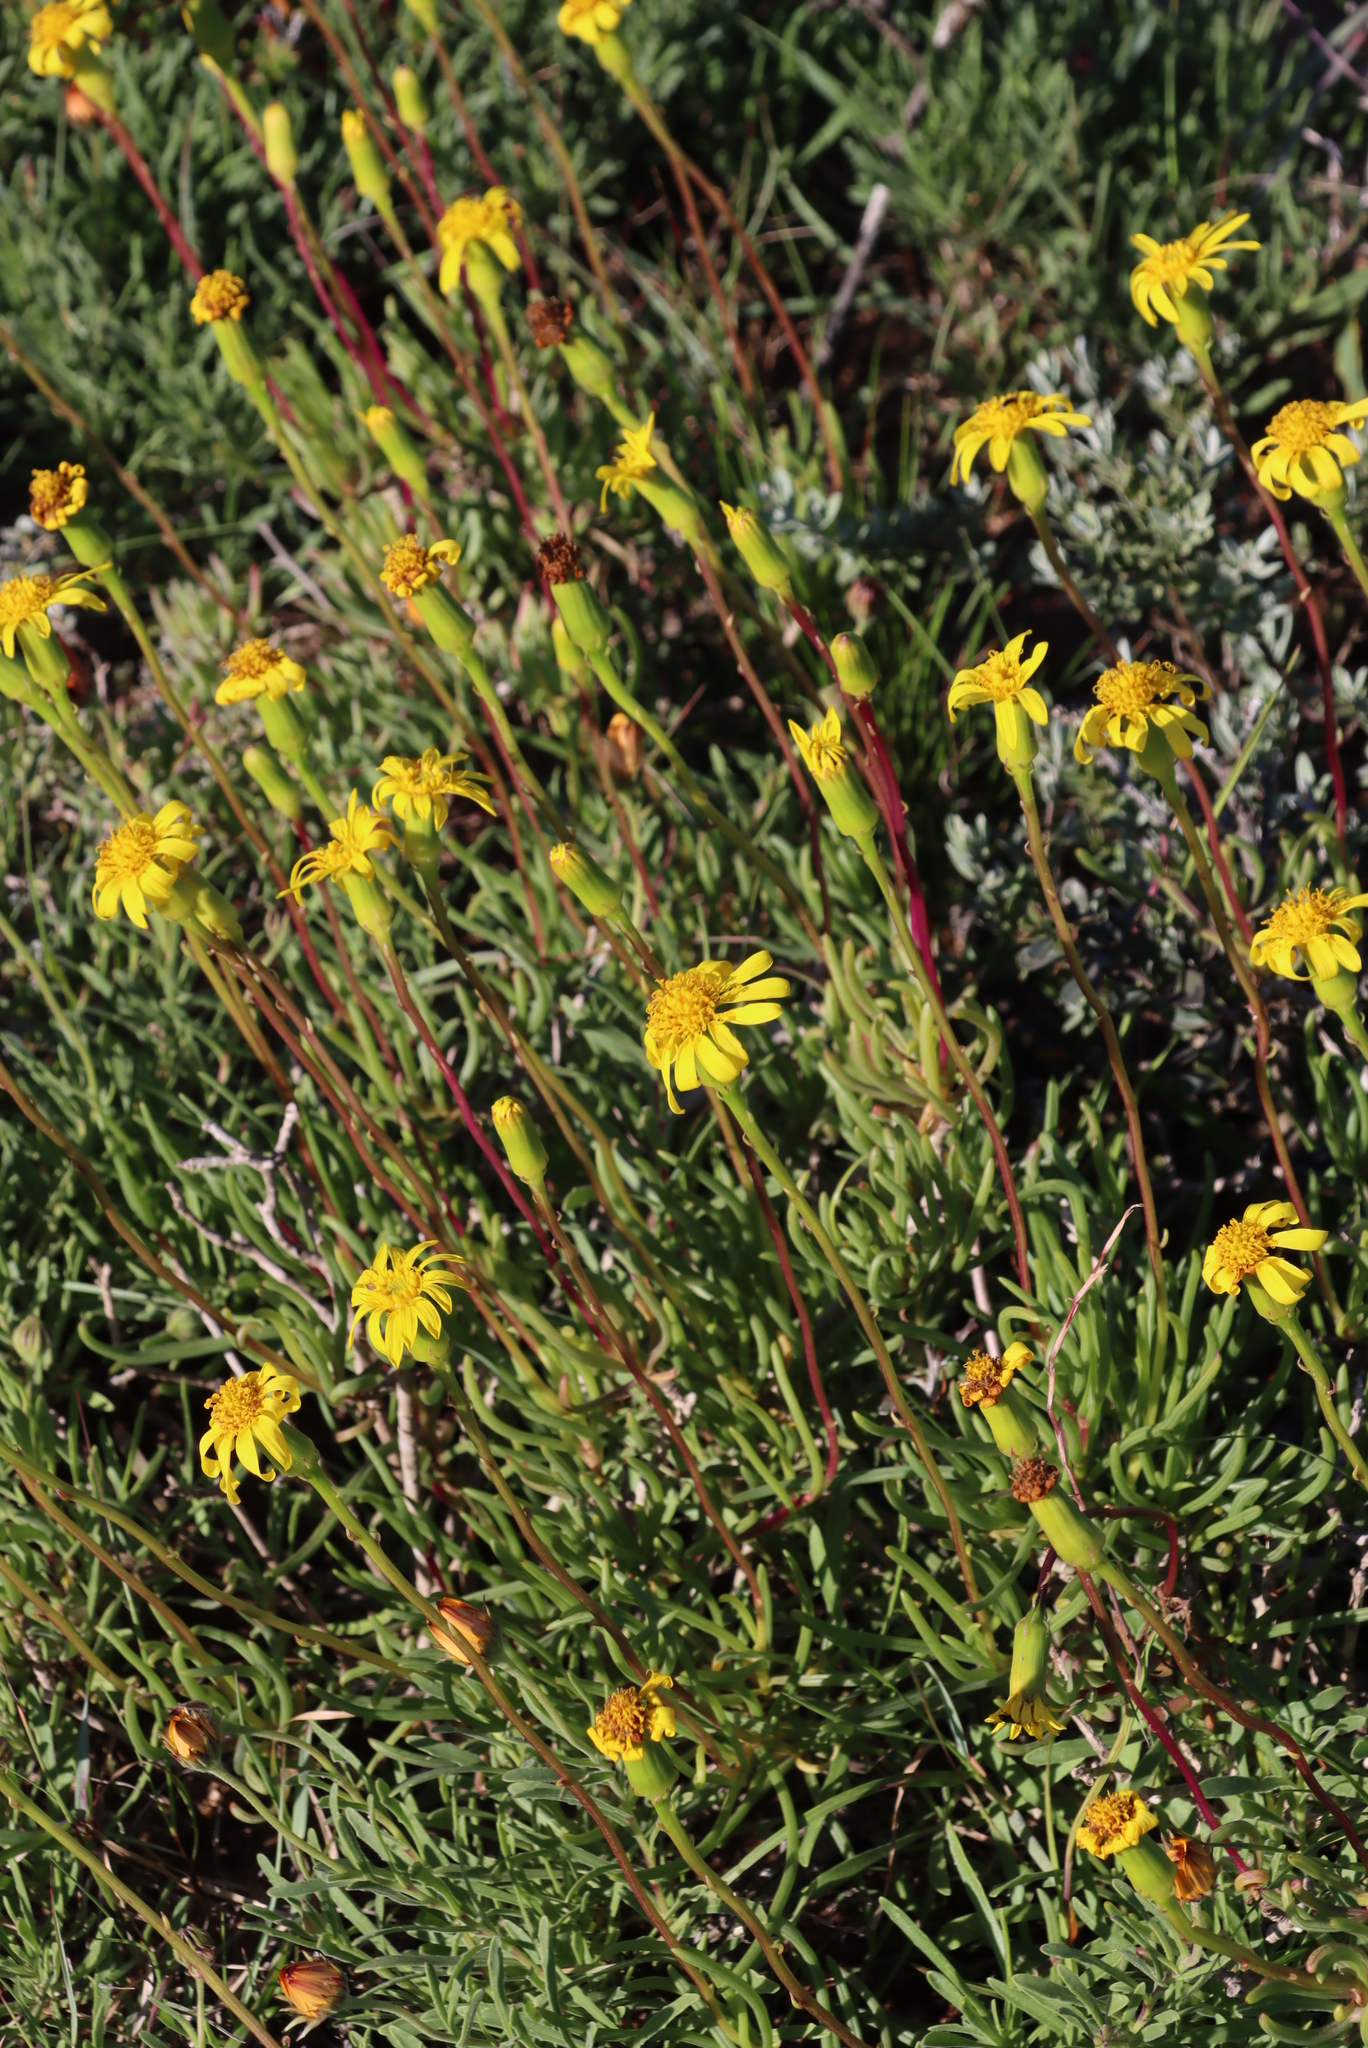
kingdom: Plantae
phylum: Tracheophyta
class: Magnoliopsida
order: Asterales
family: Asteraceae
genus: Senecio
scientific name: Senecio alooides
